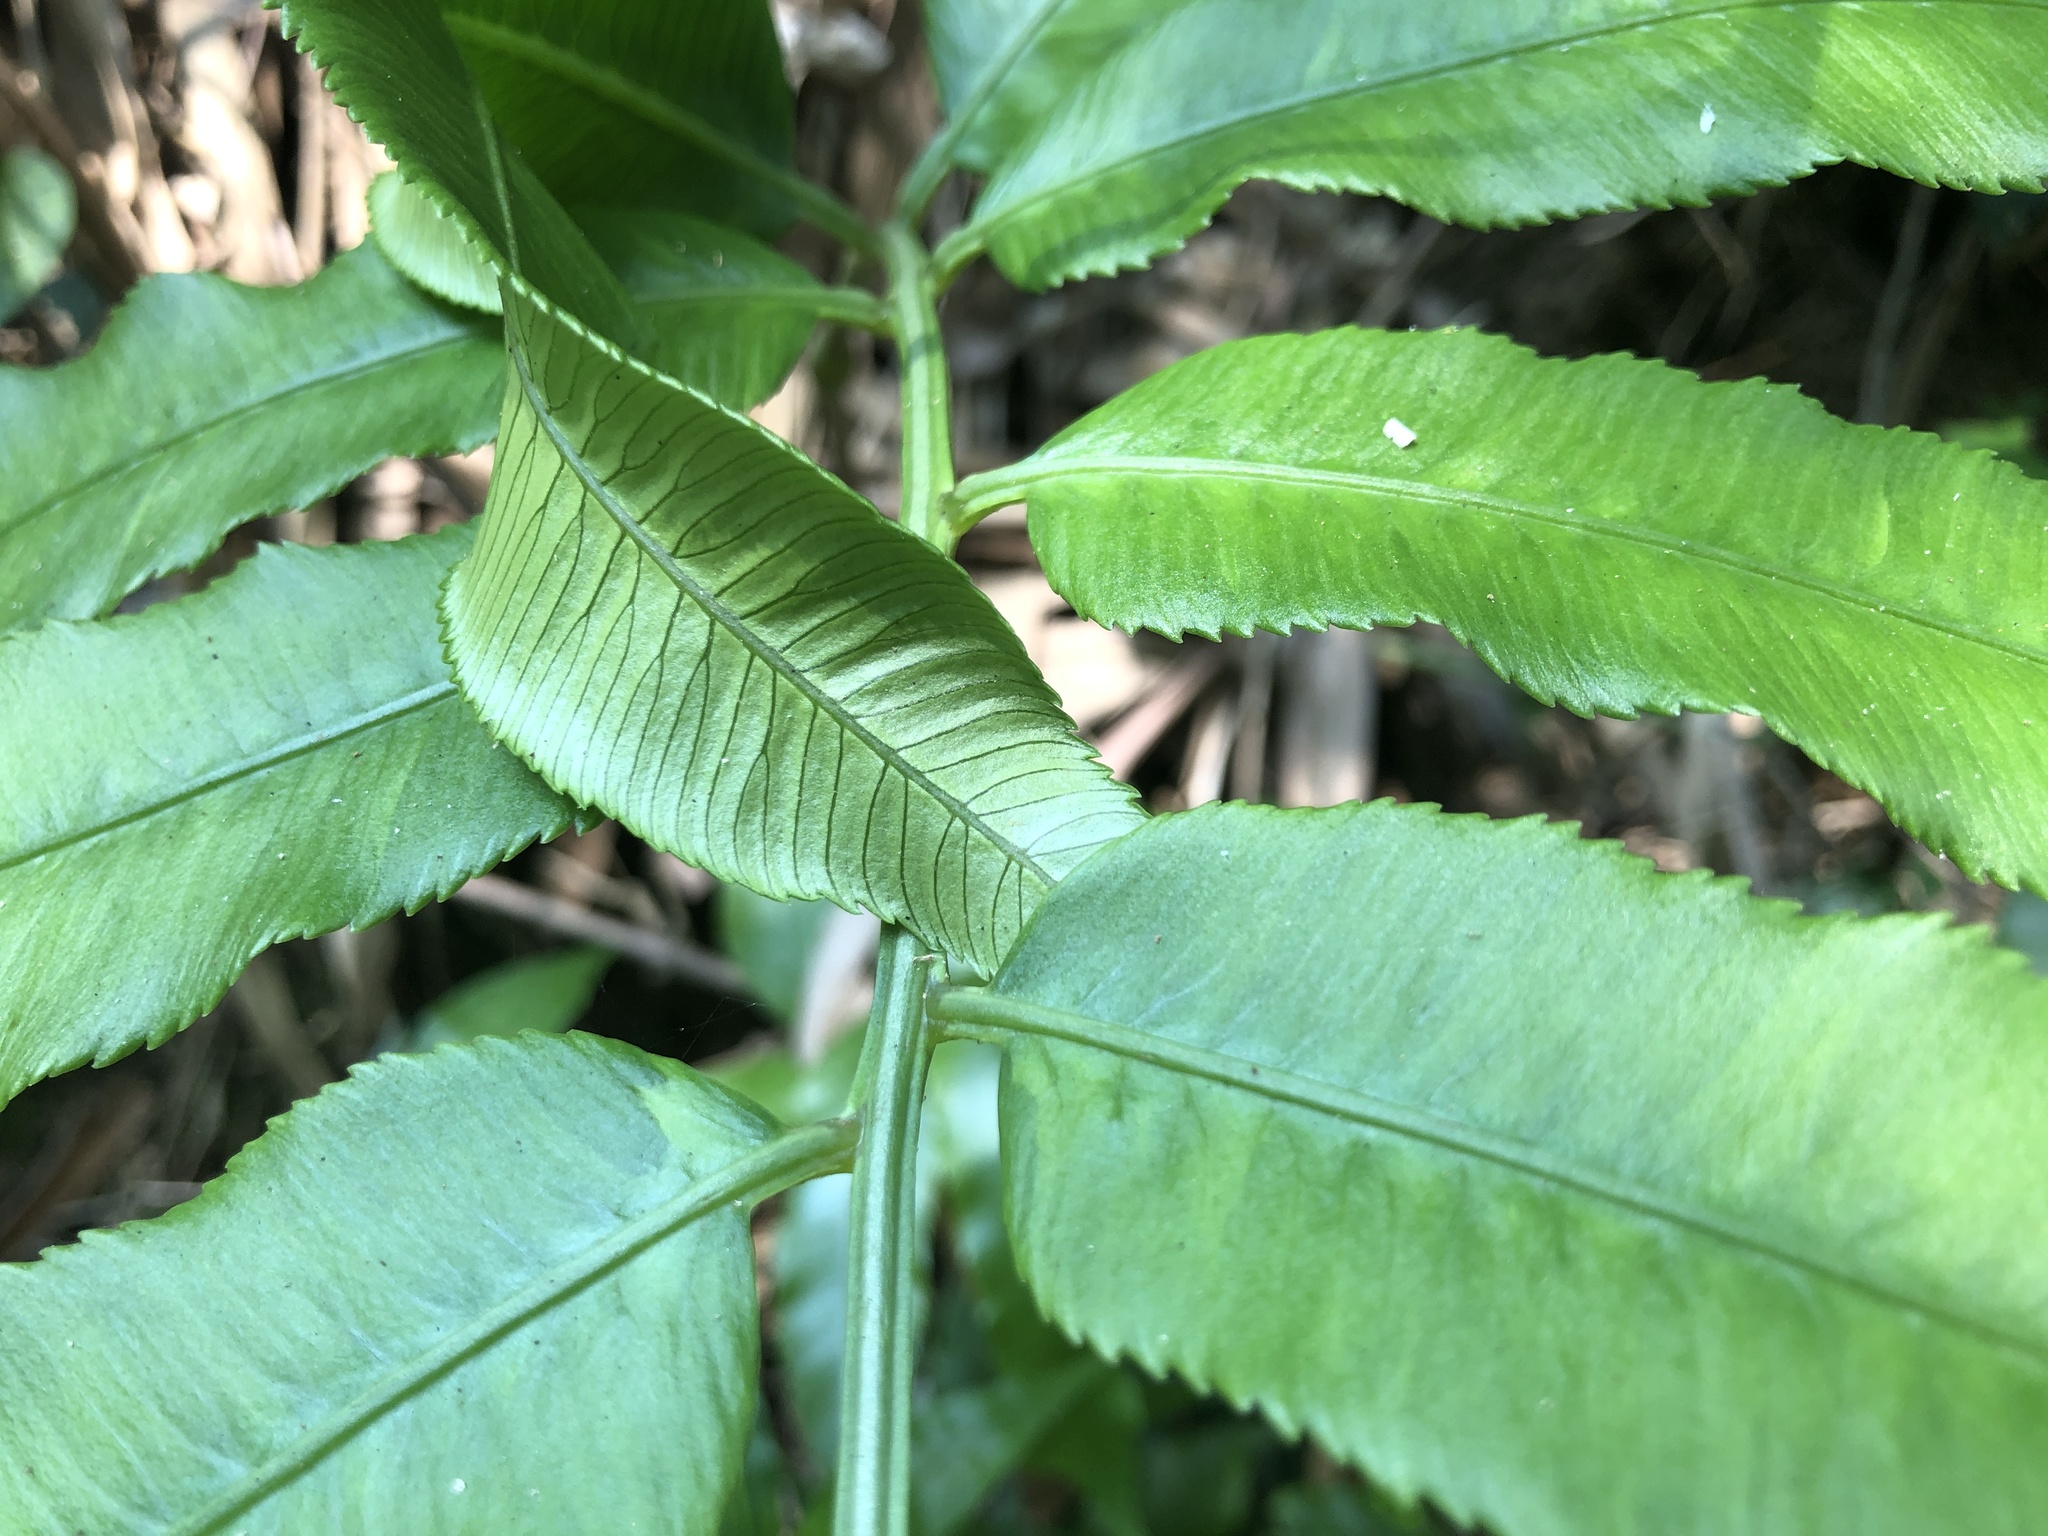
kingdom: Plantae
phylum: Tracheophyta
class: Polypodiopsida
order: Marattiales
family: Marattiaceae
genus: Angiopteris
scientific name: Angiopteris lygodiifolia
